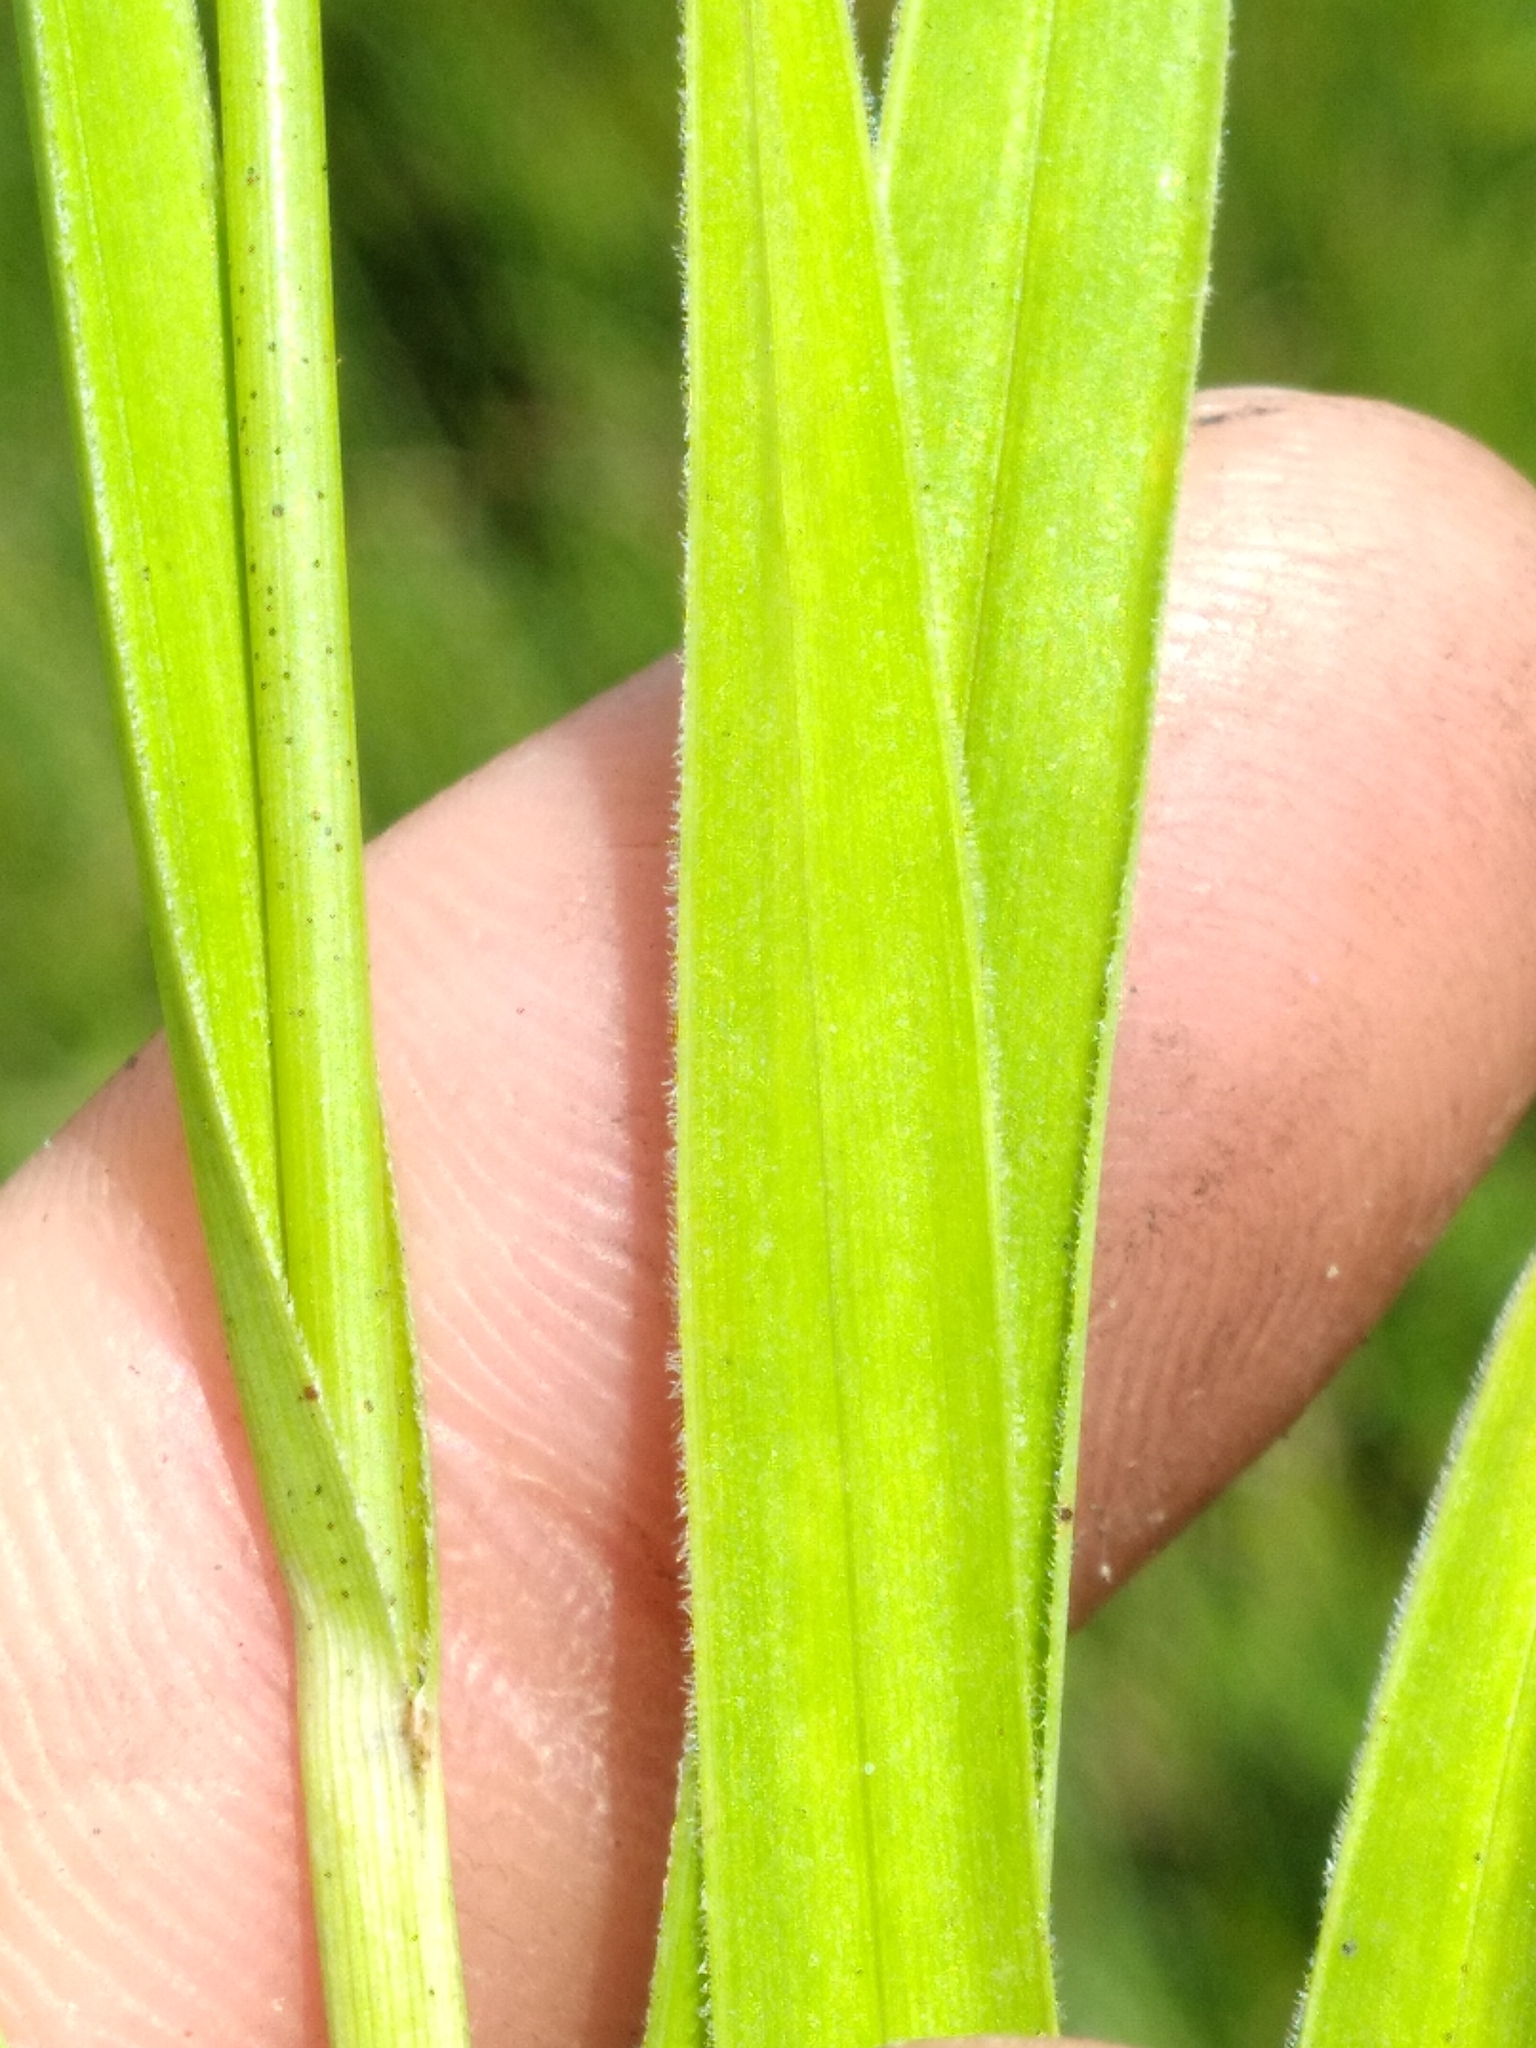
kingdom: Plantae
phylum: Tracheophyta
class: Liliopsida
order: Poales
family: Cyperaceae
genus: Rhynchospora
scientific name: Rhynchospora ciliaris
